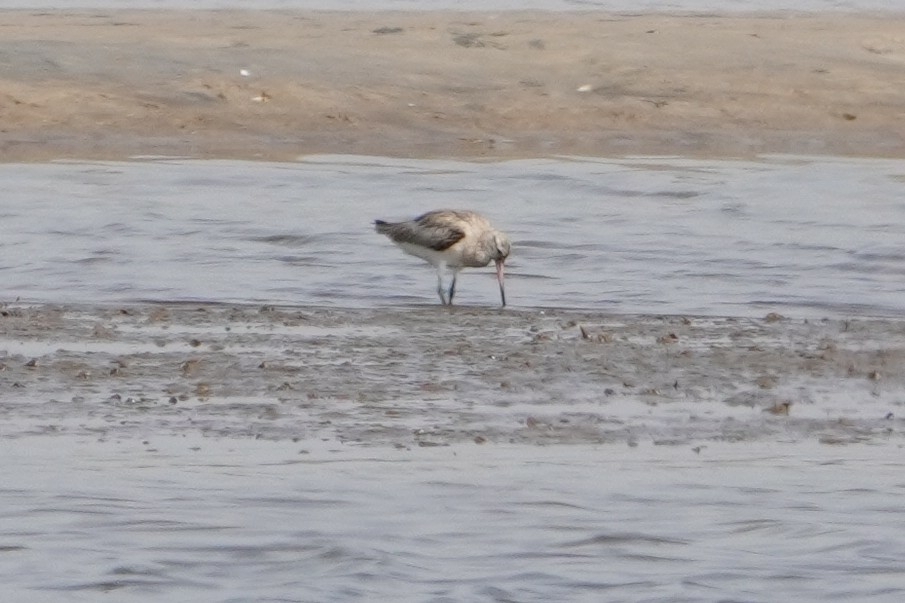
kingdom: Animalia
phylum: Chordata
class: Aves
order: Charadriiformes
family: Scolopacidae
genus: Limosa
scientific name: Limosa lapponica
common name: Bar-tailed godwit
